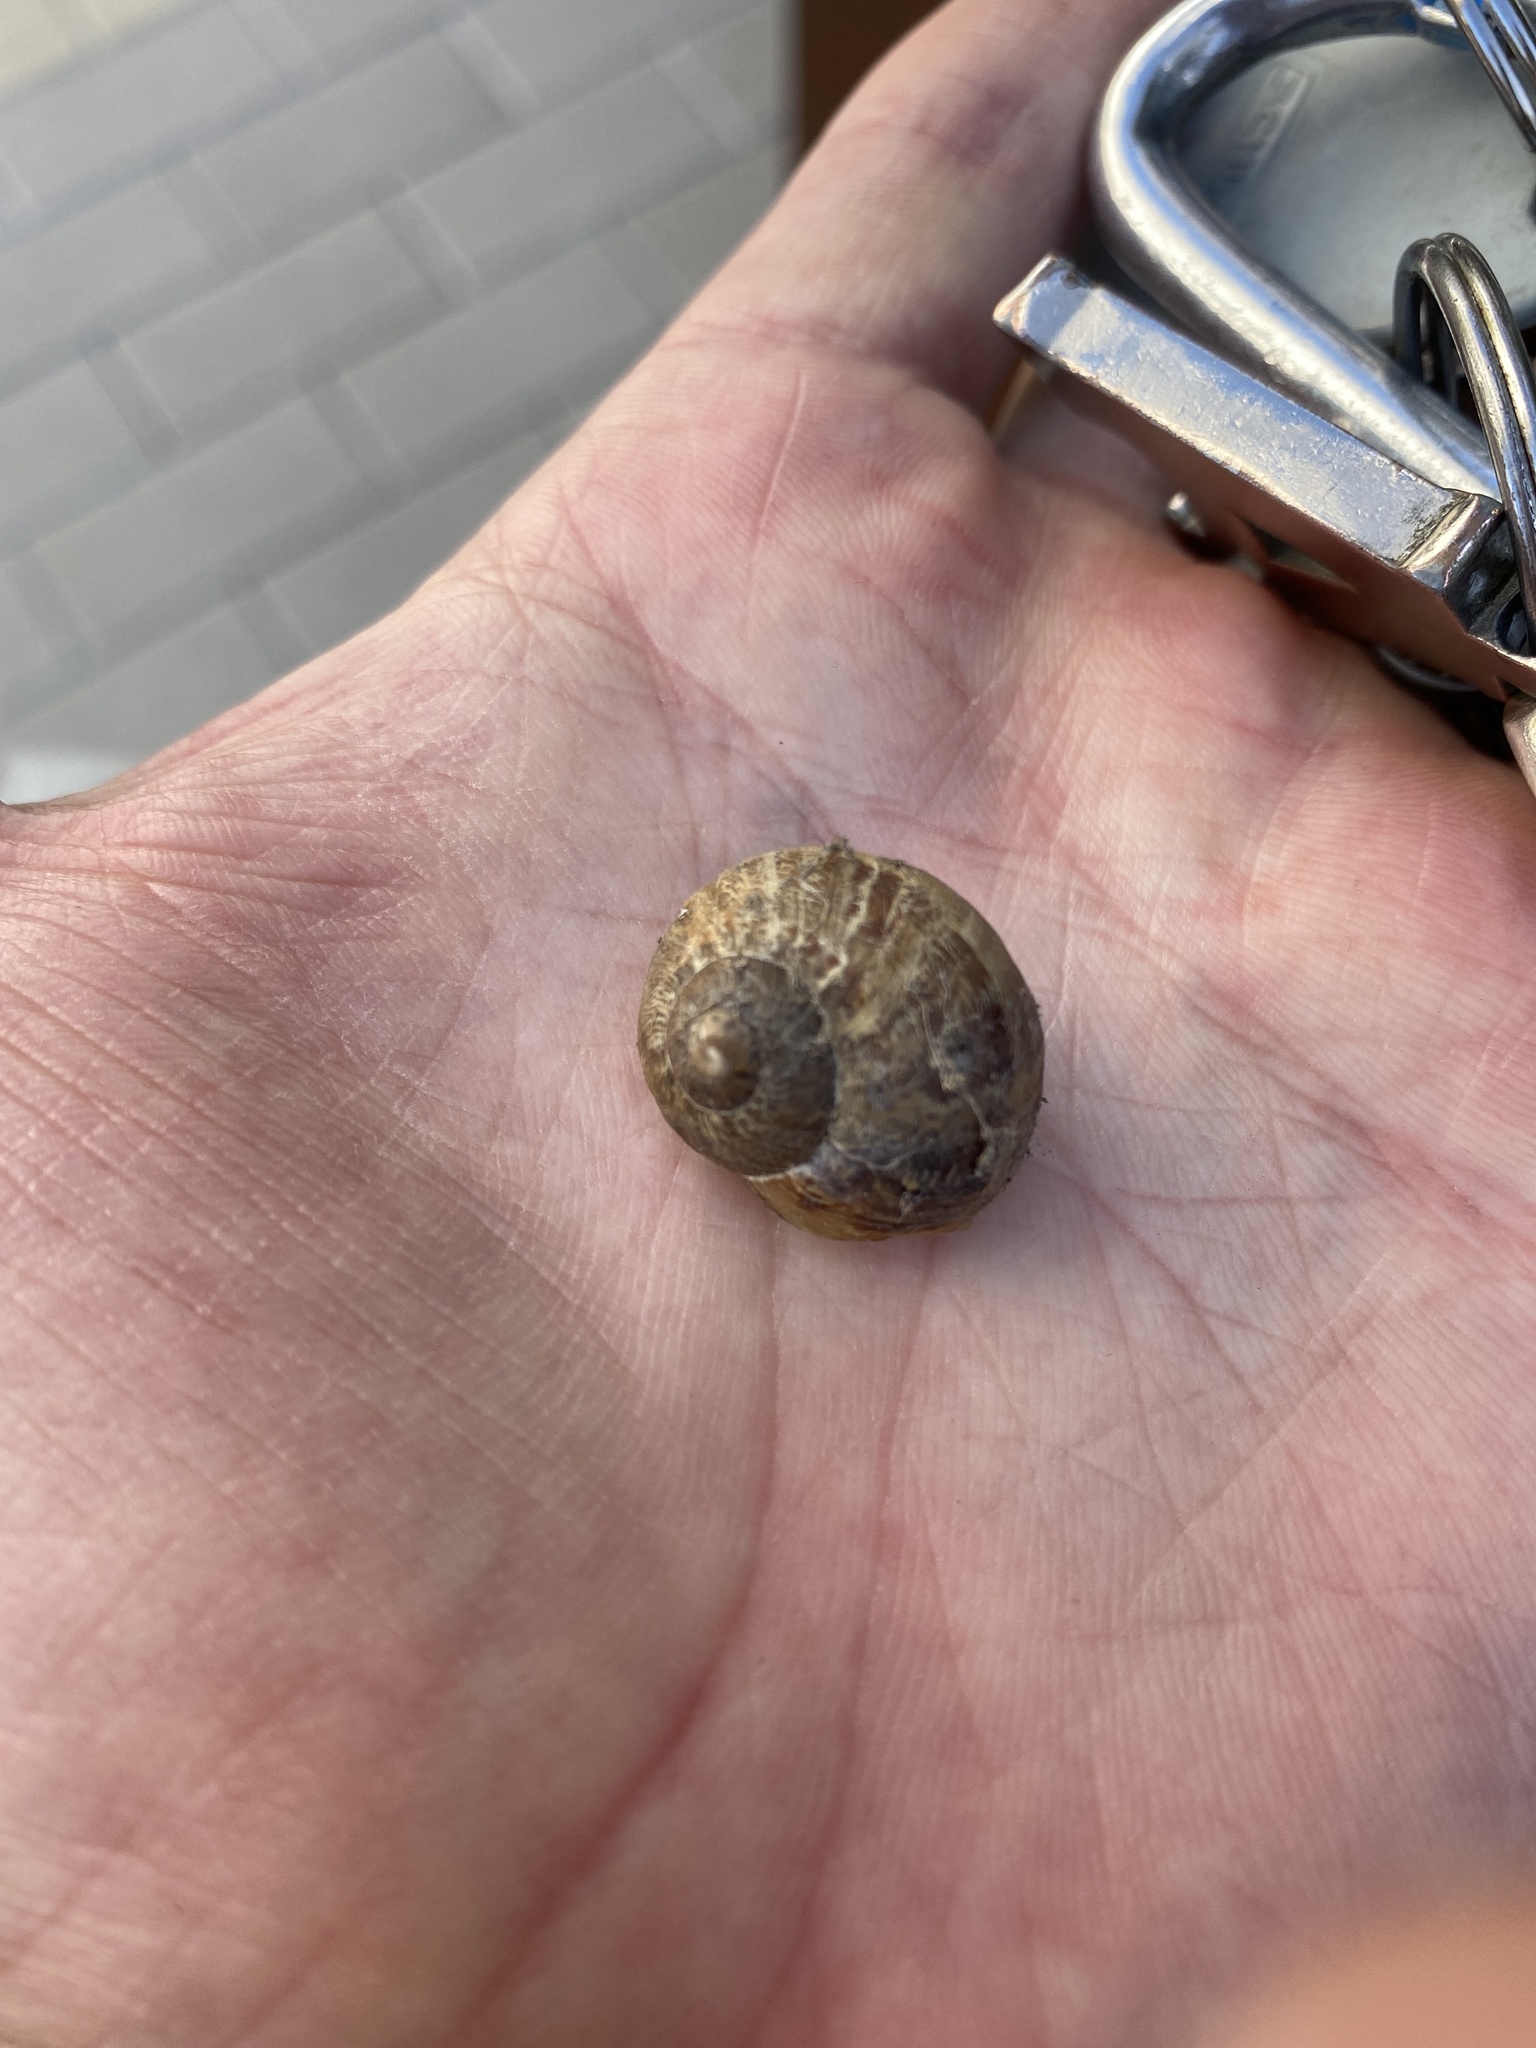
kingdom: Animalia
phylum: Mollusca
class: Gastropoda
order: Stylommatophora
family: Helicidae
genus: Cornu
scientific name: Cornu aspersum
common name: Brown garden snail
